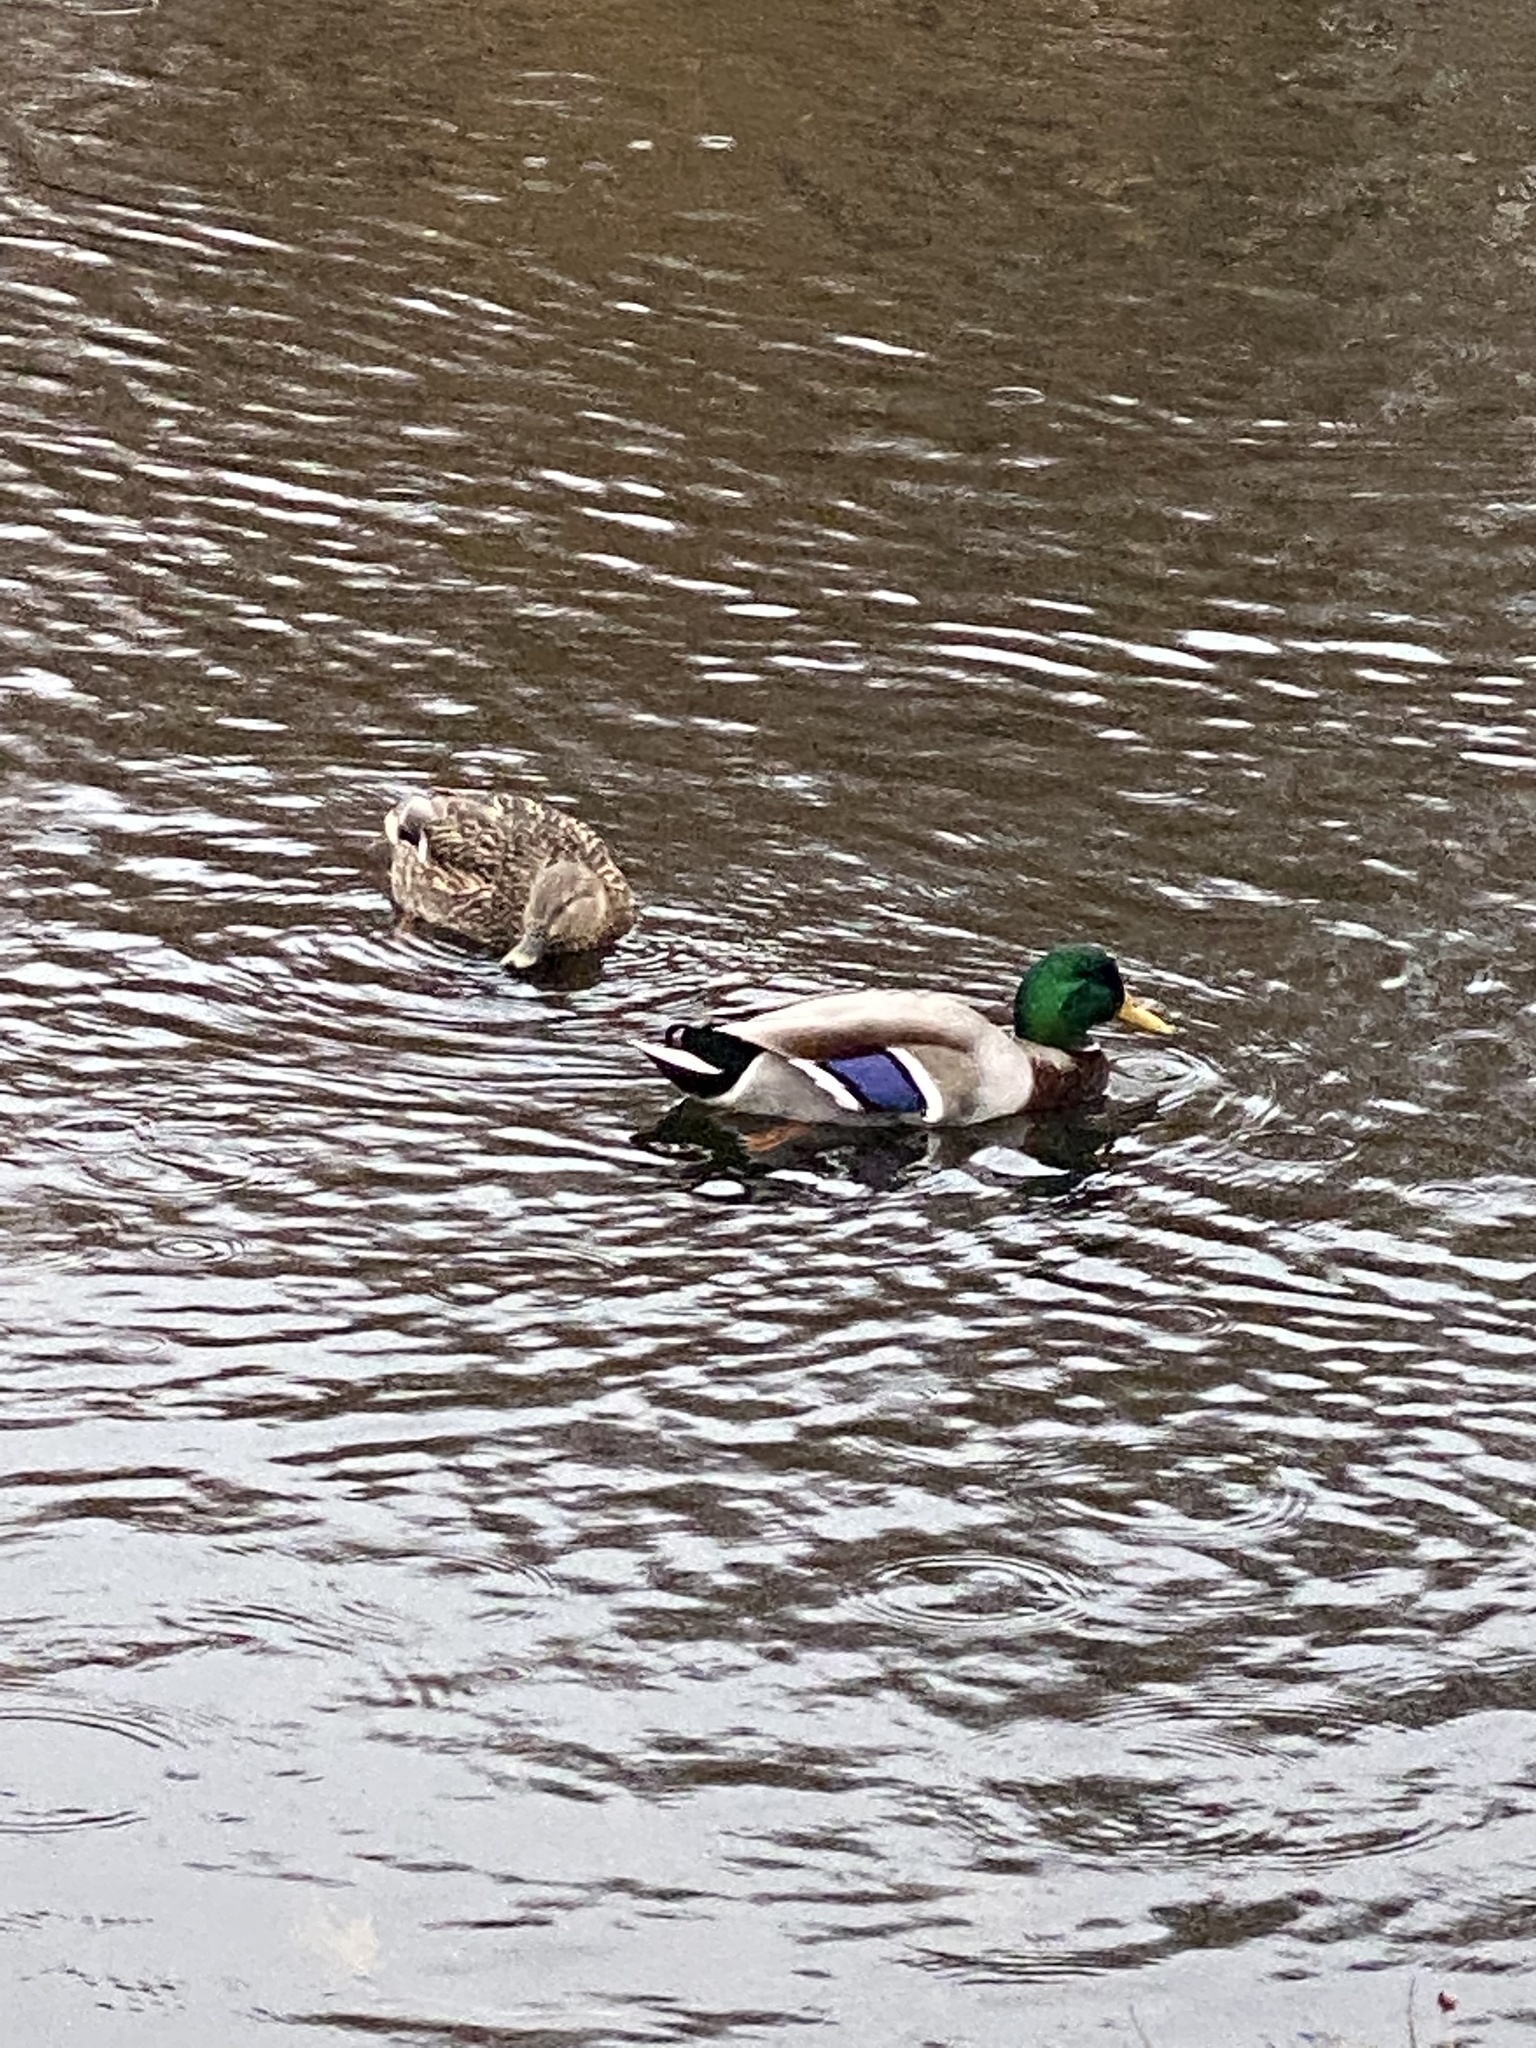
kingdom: Animalia
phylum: Chordata
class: Aves
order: Anseriformes
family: Anatidae
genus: Anas
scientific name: Anas platyrhynchos
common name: Mallard
